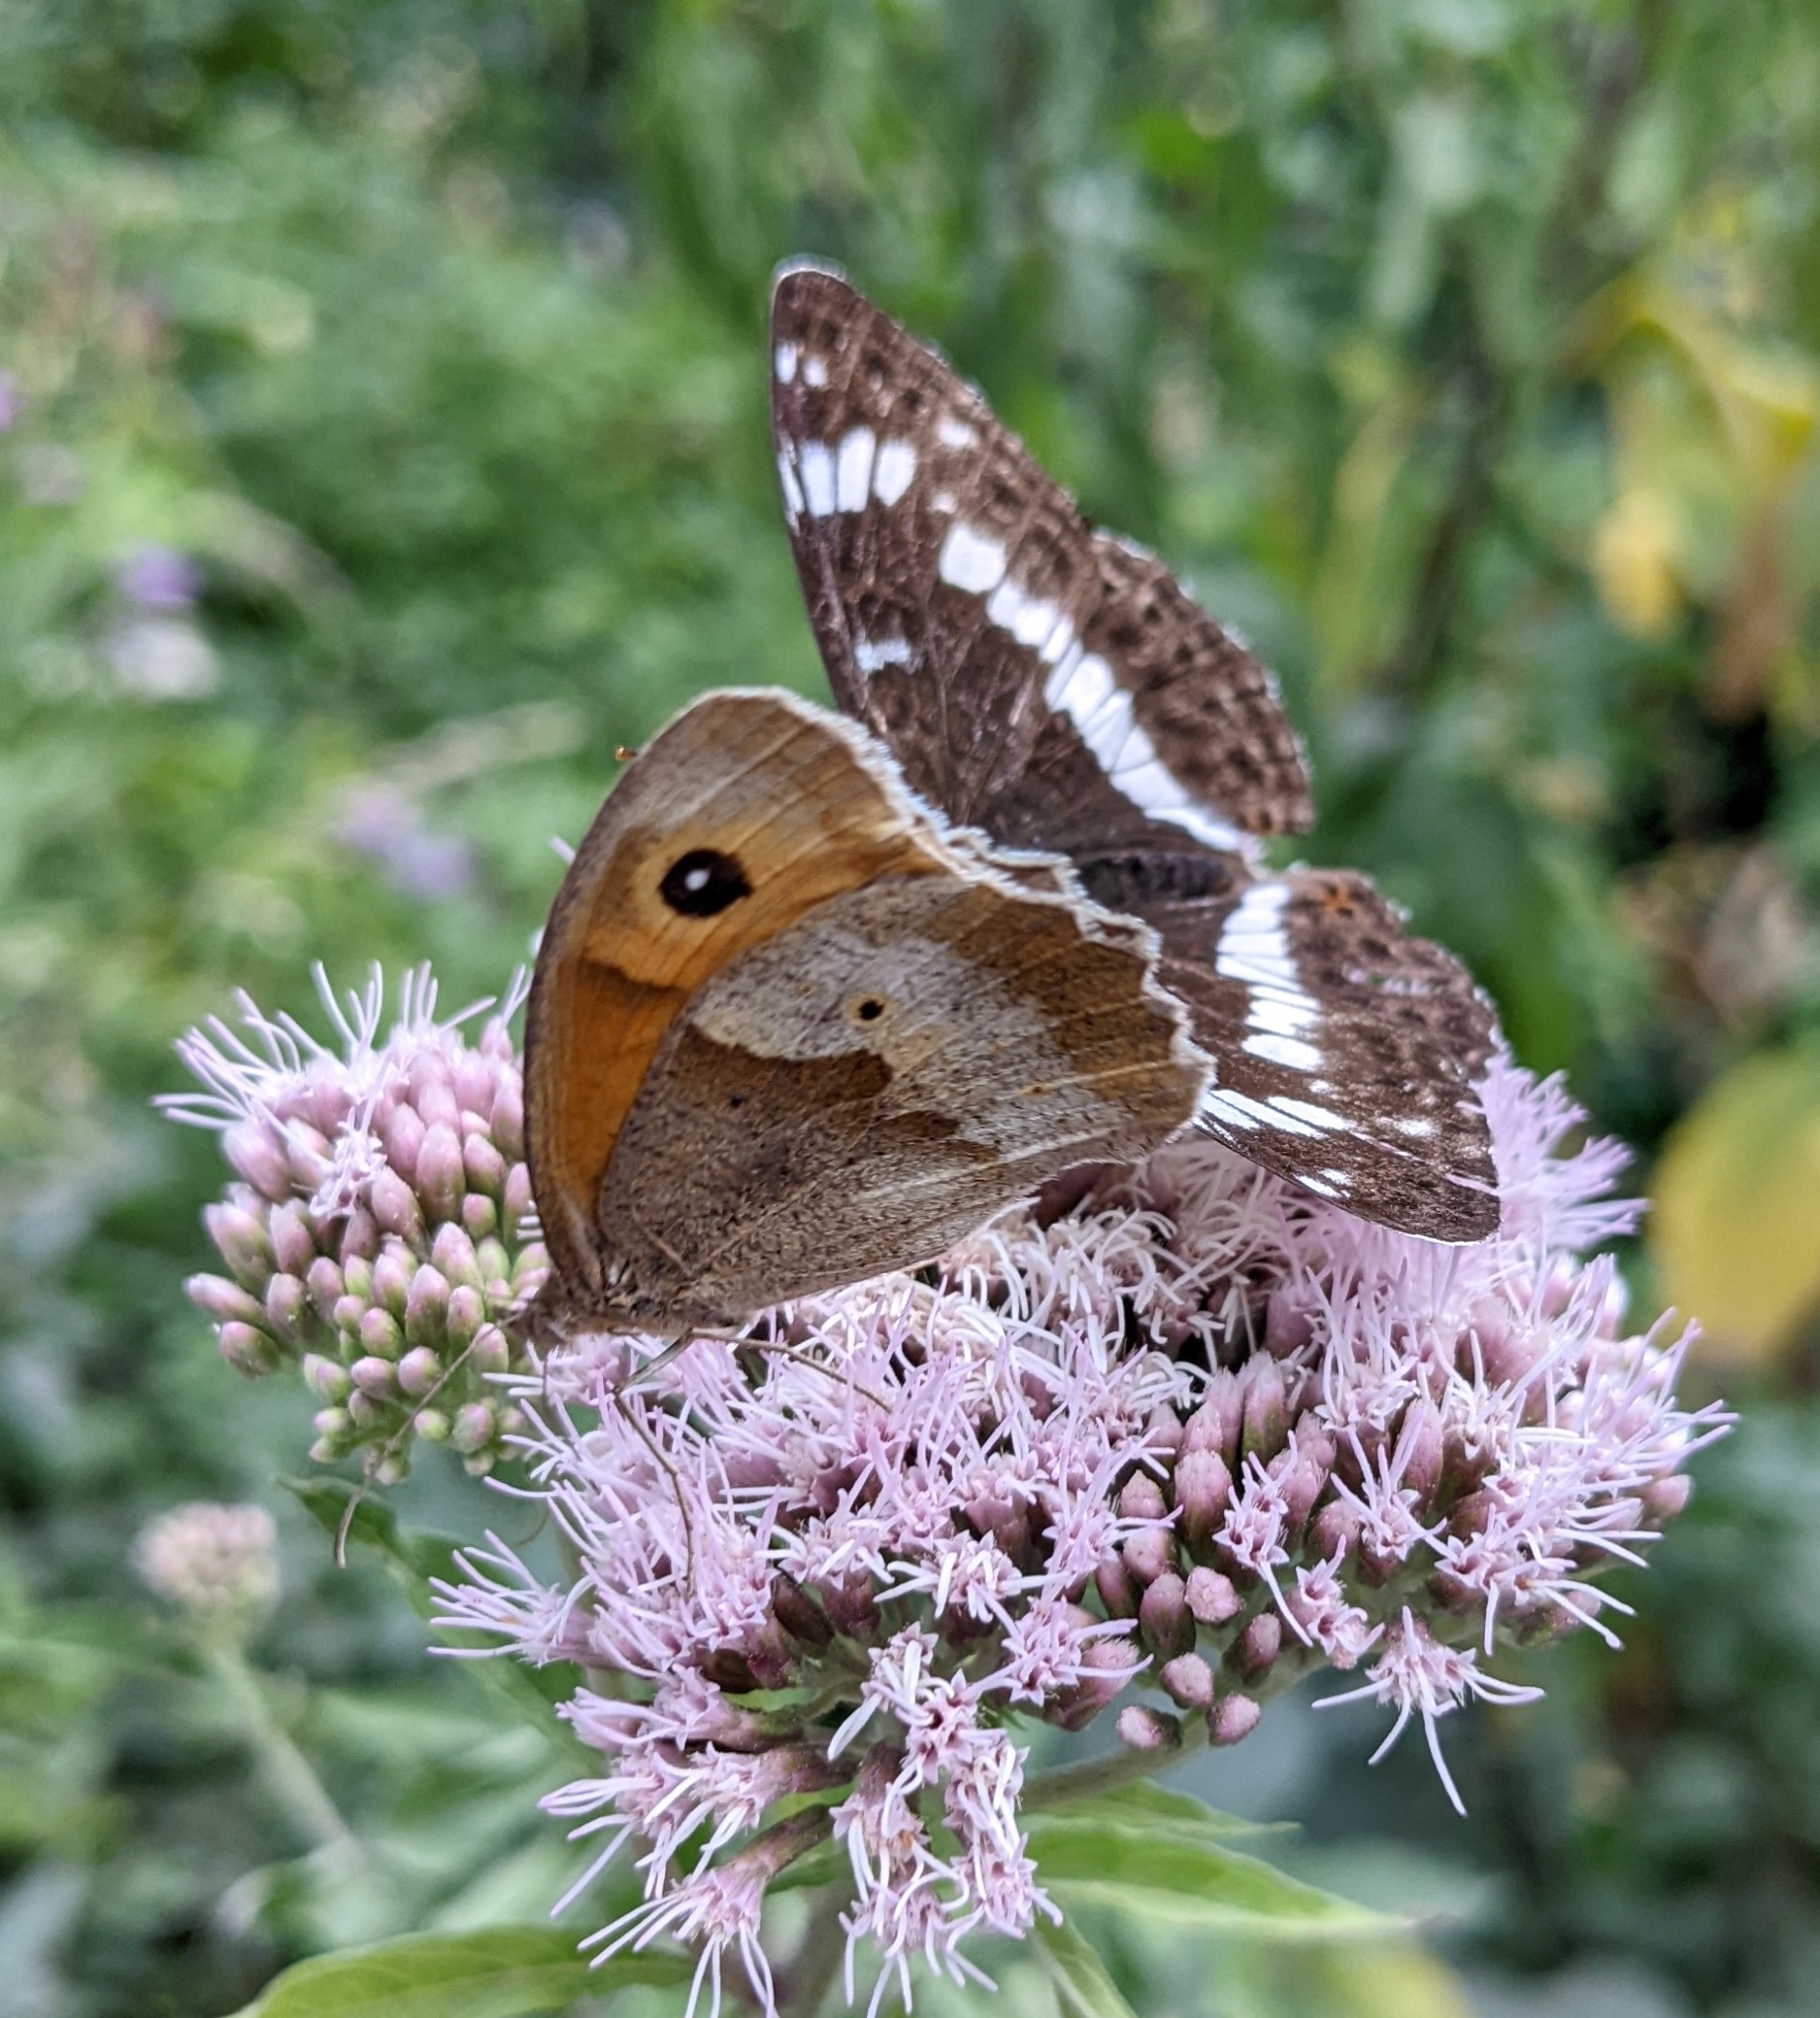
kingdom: Animalia
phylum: Arthropoda
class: Insecta
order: Lepidoptera
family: Nymphalidae
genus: Maniola
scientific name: Maniola jurtina
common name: Meadow brown
